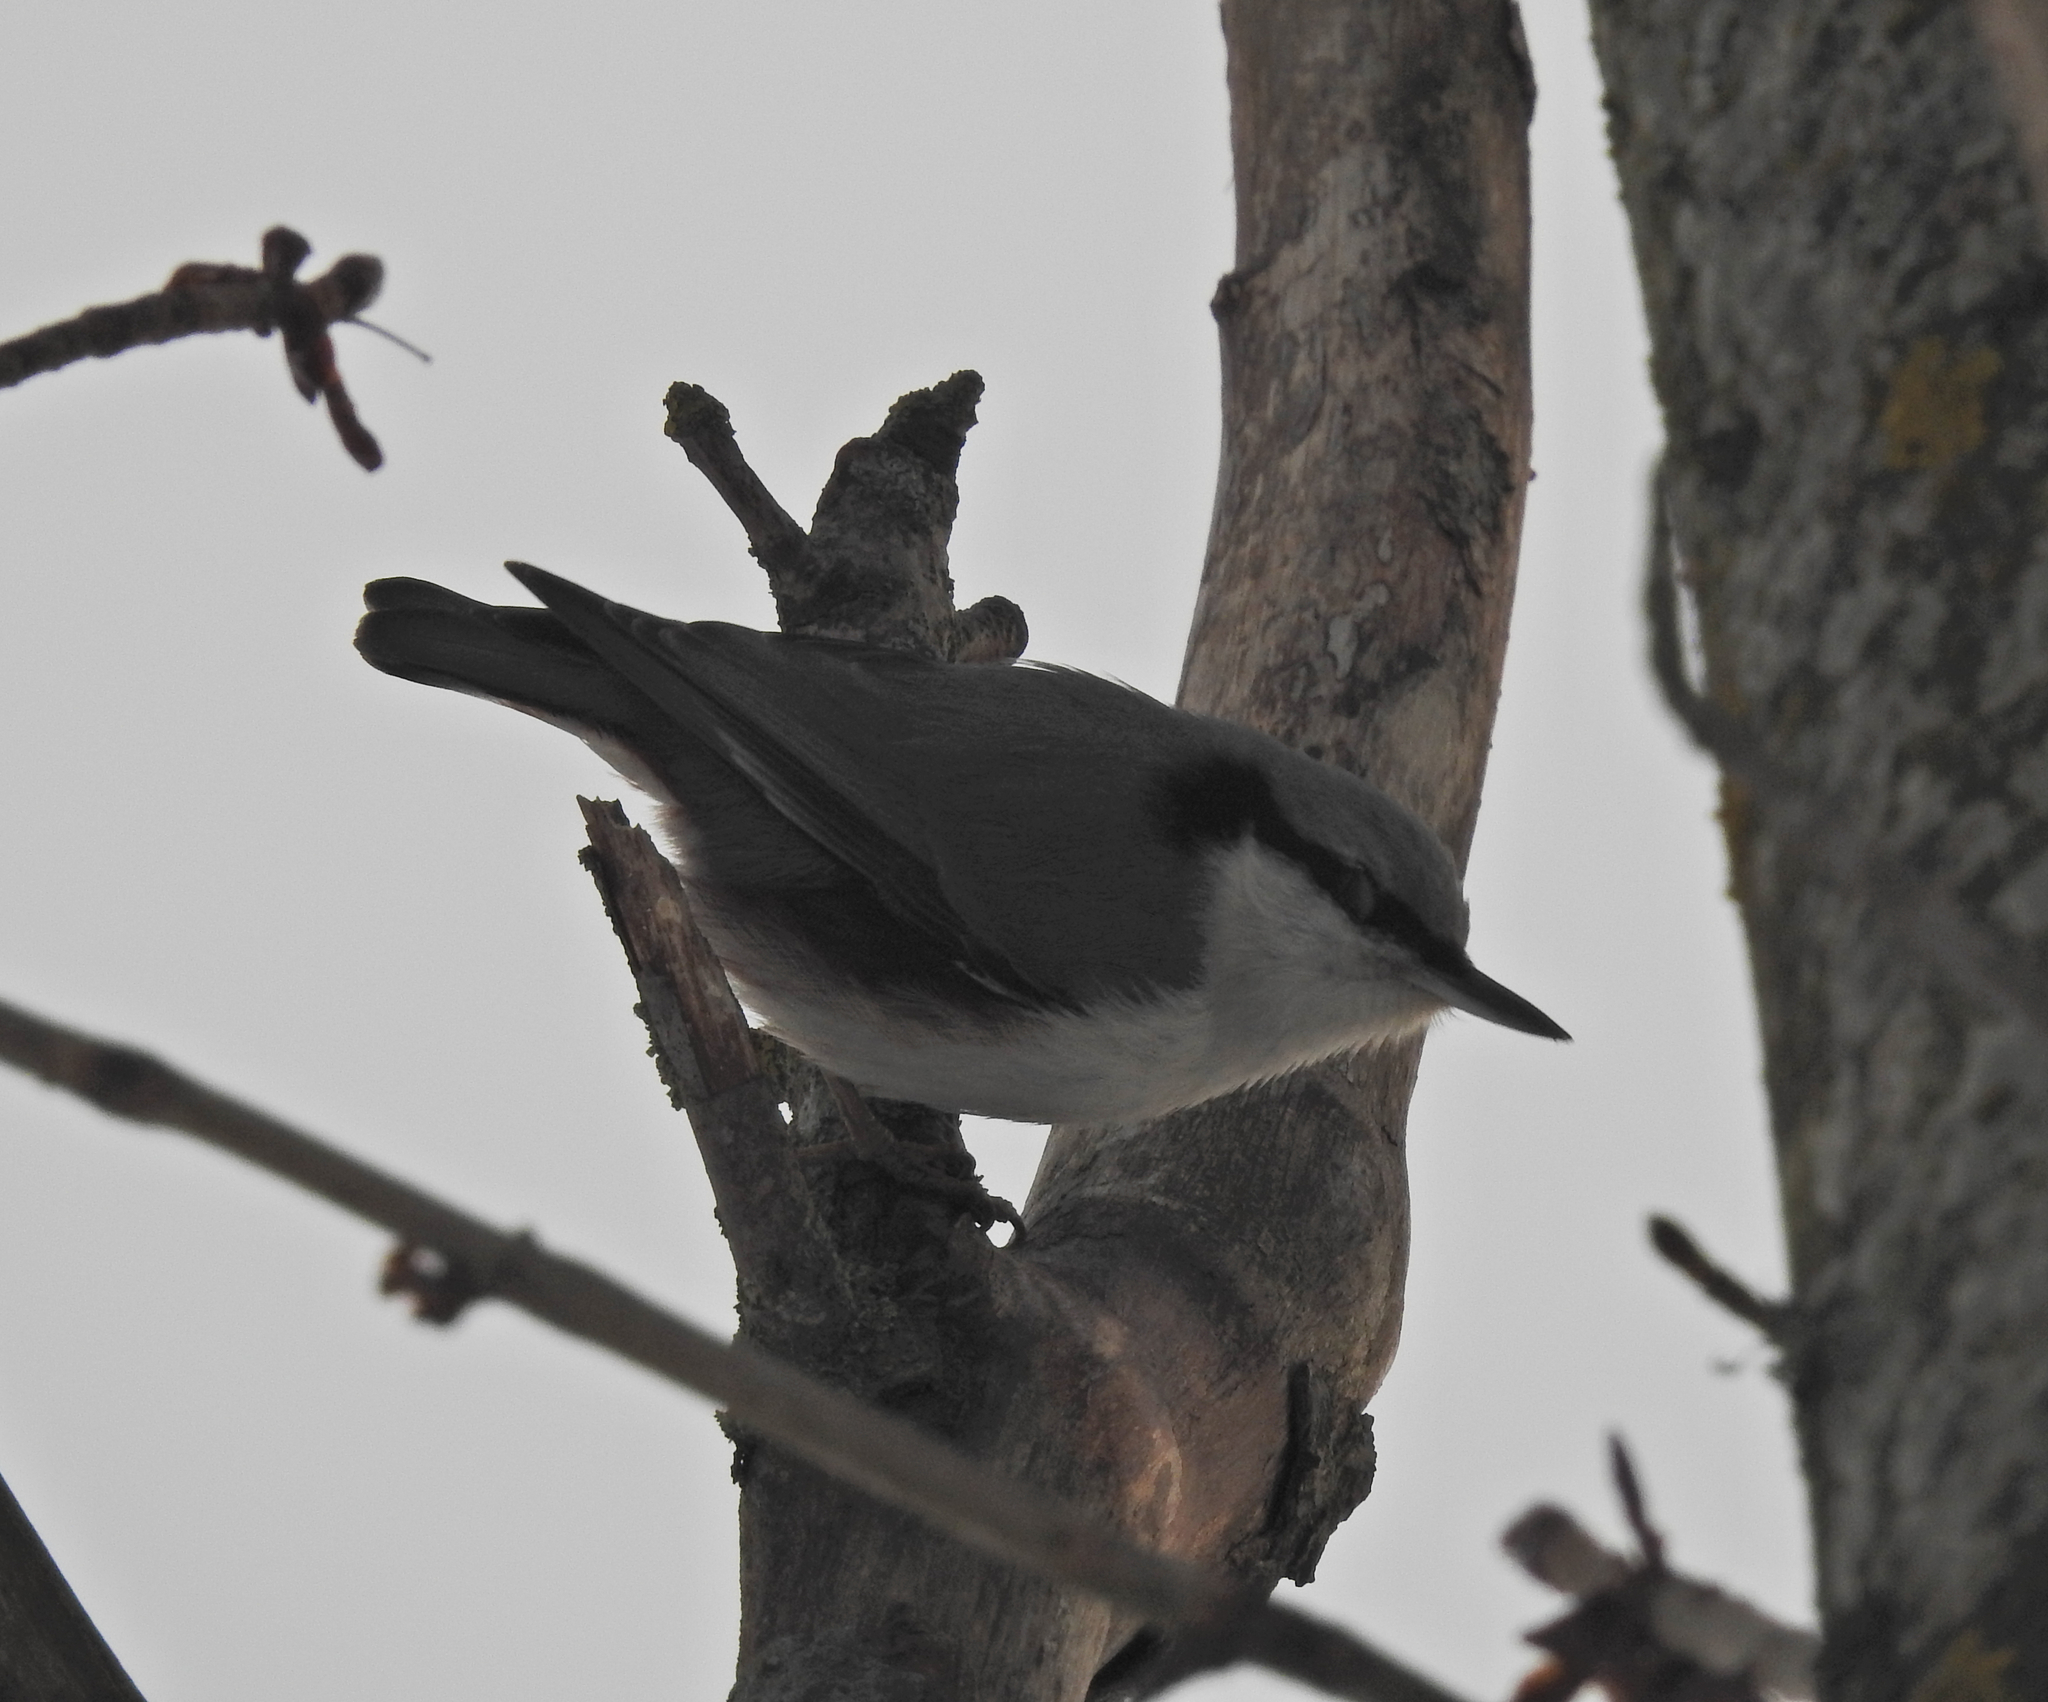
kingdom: Animalia
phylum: Chordata
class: Aves
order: Passeriformes
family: Sittidae
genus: Sitta
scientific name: Sitta europaea
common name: Eurasian nuthatch
